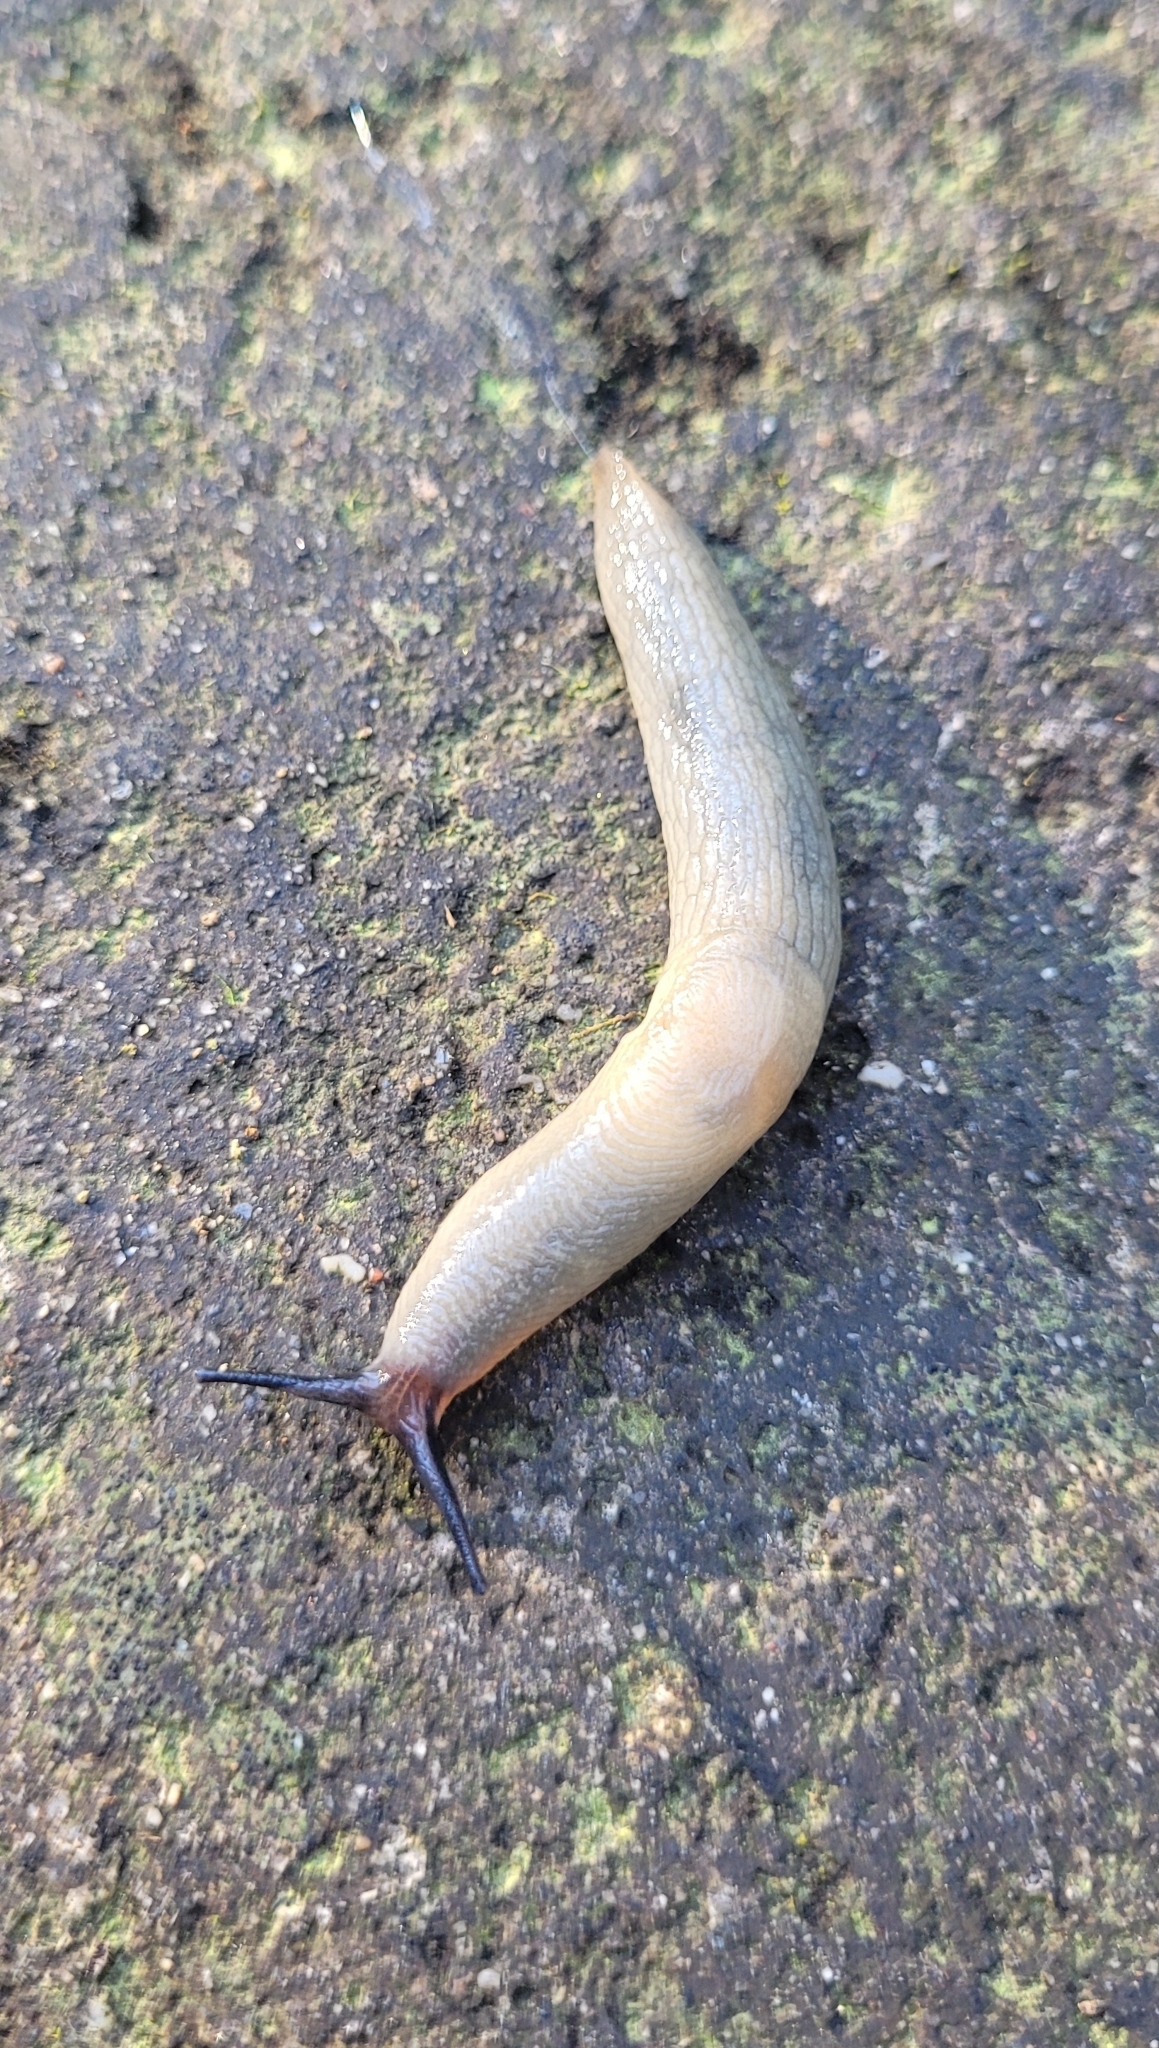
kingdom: Animalia
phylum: Mollusca
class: Gastropoda
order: Stylommatophora
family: Agriolimacidae
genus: Krynickillus
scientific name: Krynickillus melanocephalus
